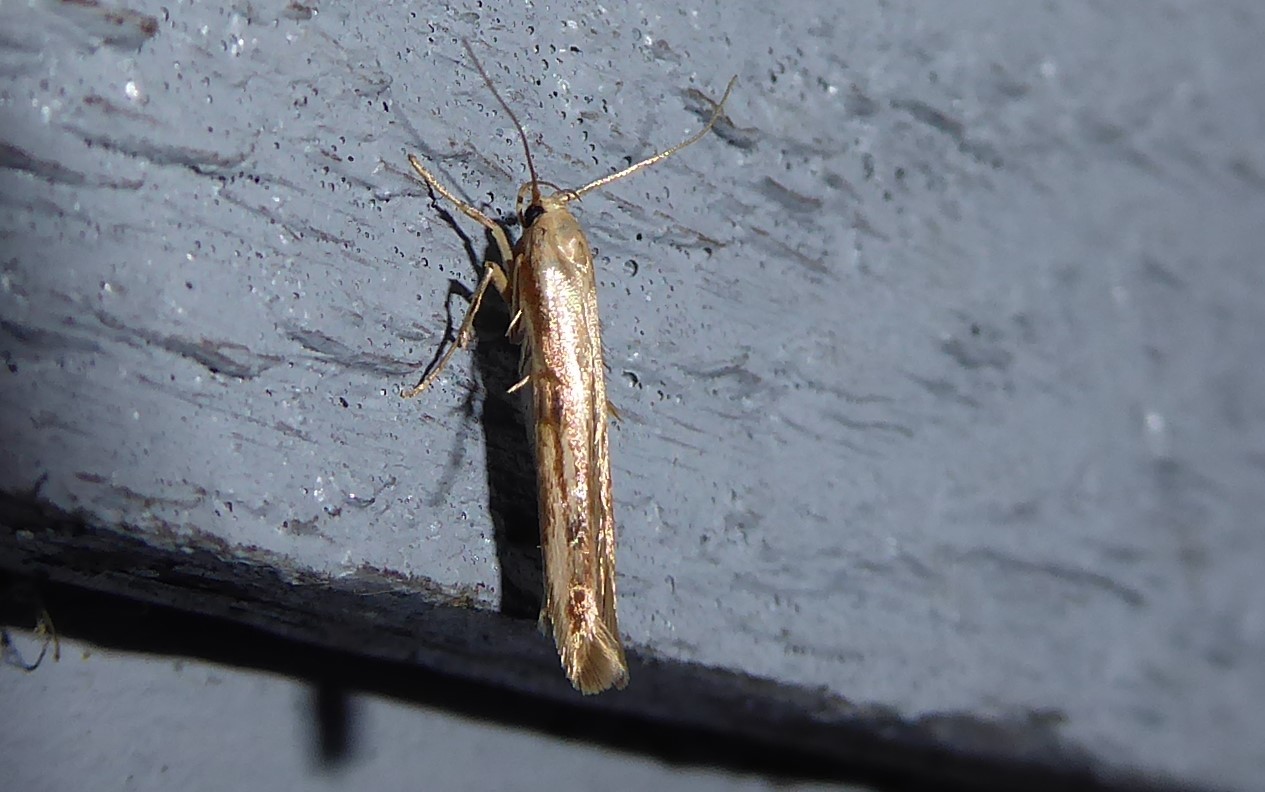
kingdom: Animalia
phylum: Arthropoda
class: Insecta
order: Lepidoptera
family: Stathmopodidae
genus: Stathmopoda
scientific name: Stathmopoda aposema
